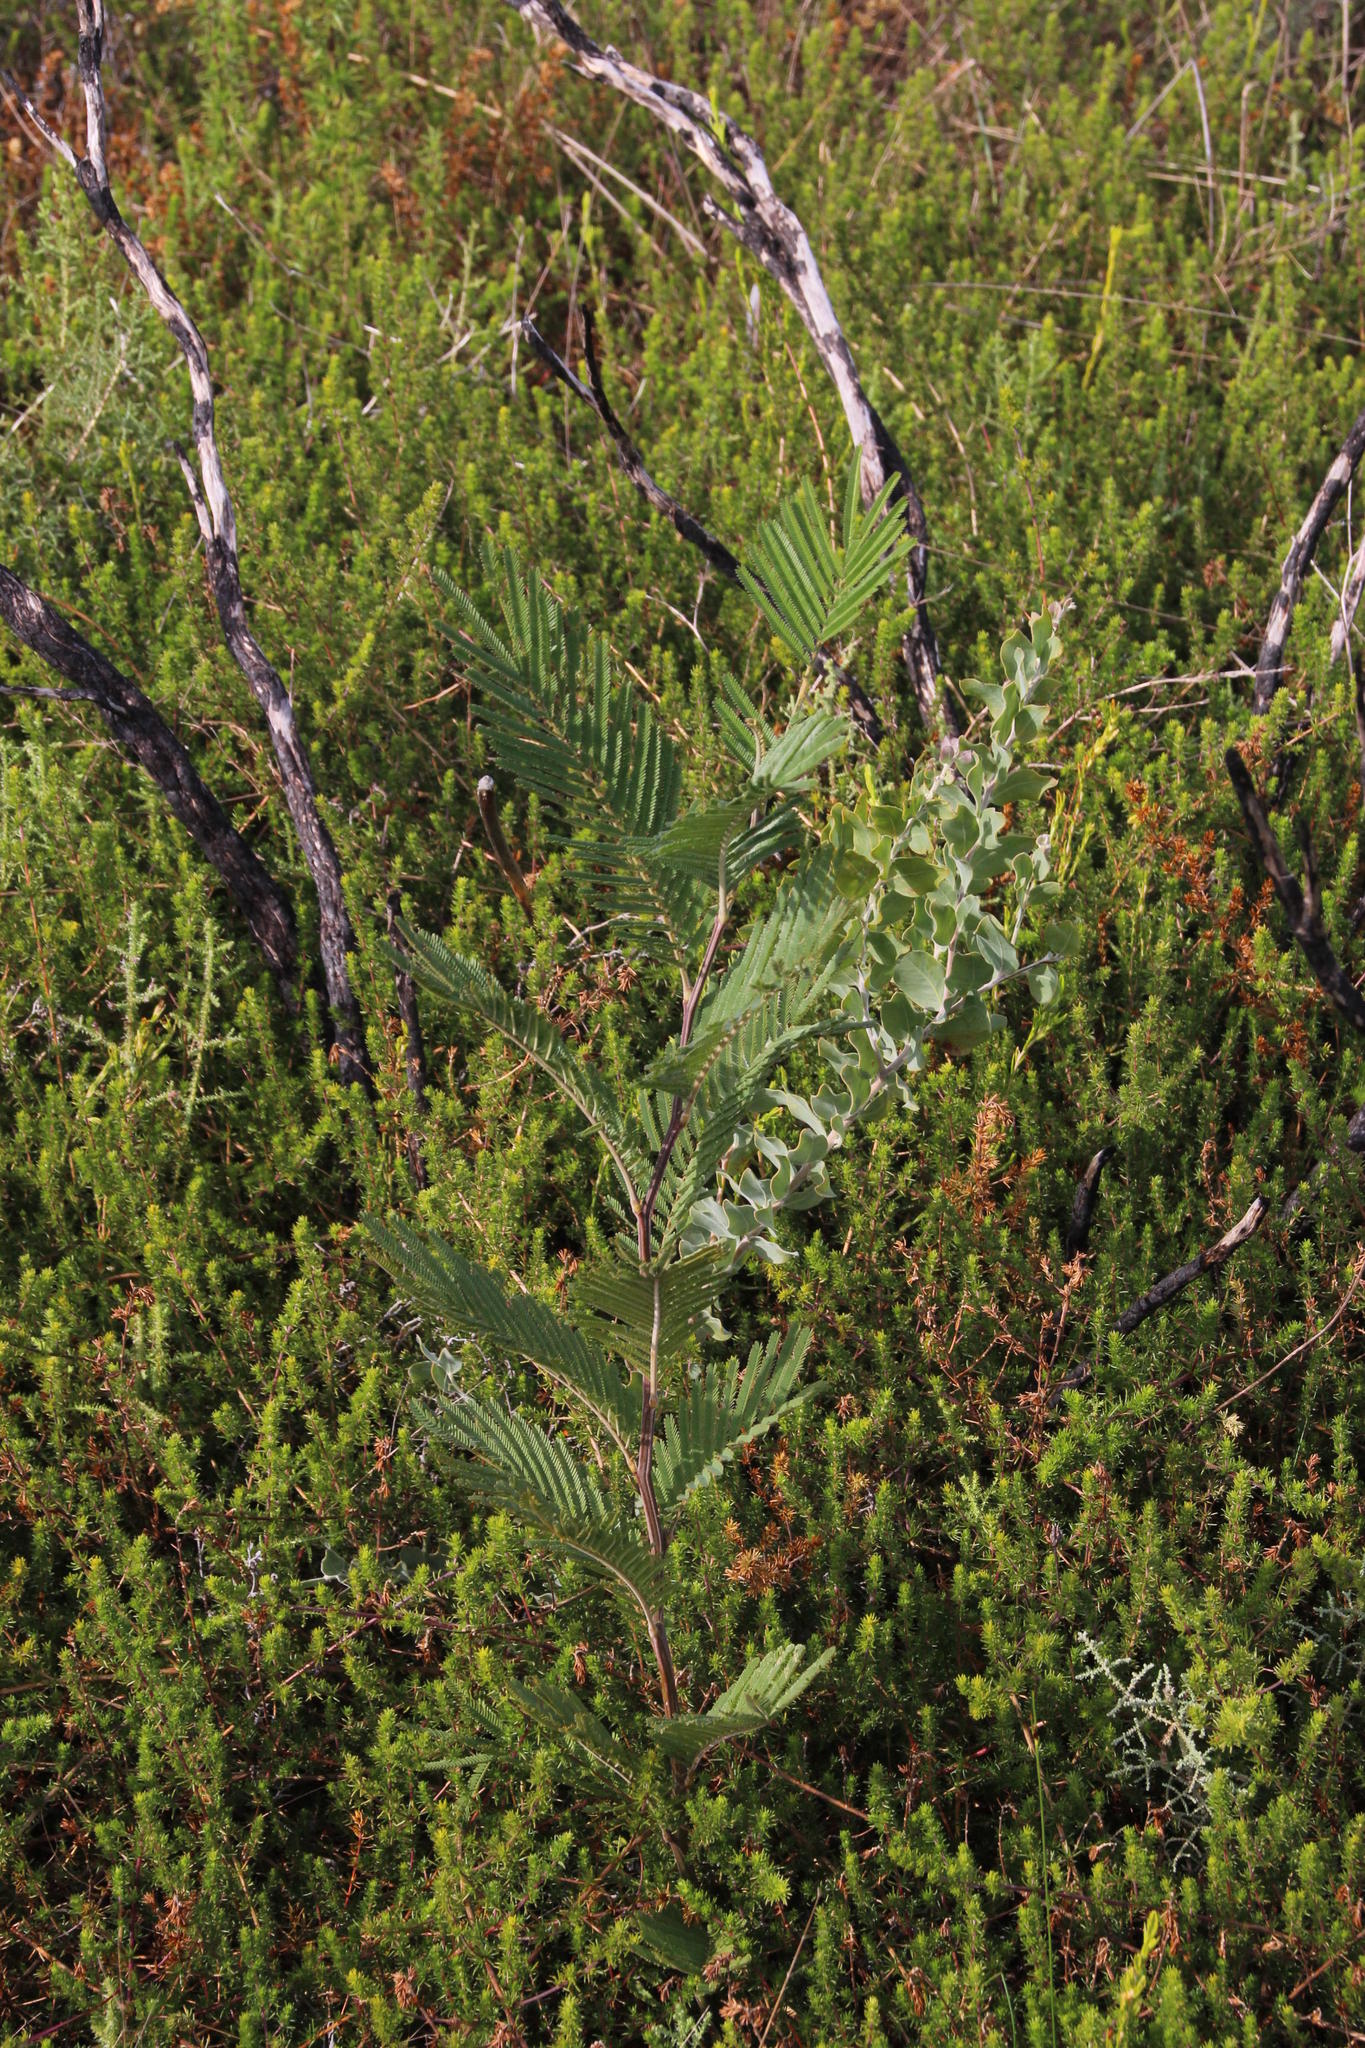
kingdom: Plantae
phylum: Tracheophyta
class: Magnoliopsida
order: Fabales
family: Fabaceae
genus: Acacia
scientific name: Acacia mearnsii
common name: Black wattle
